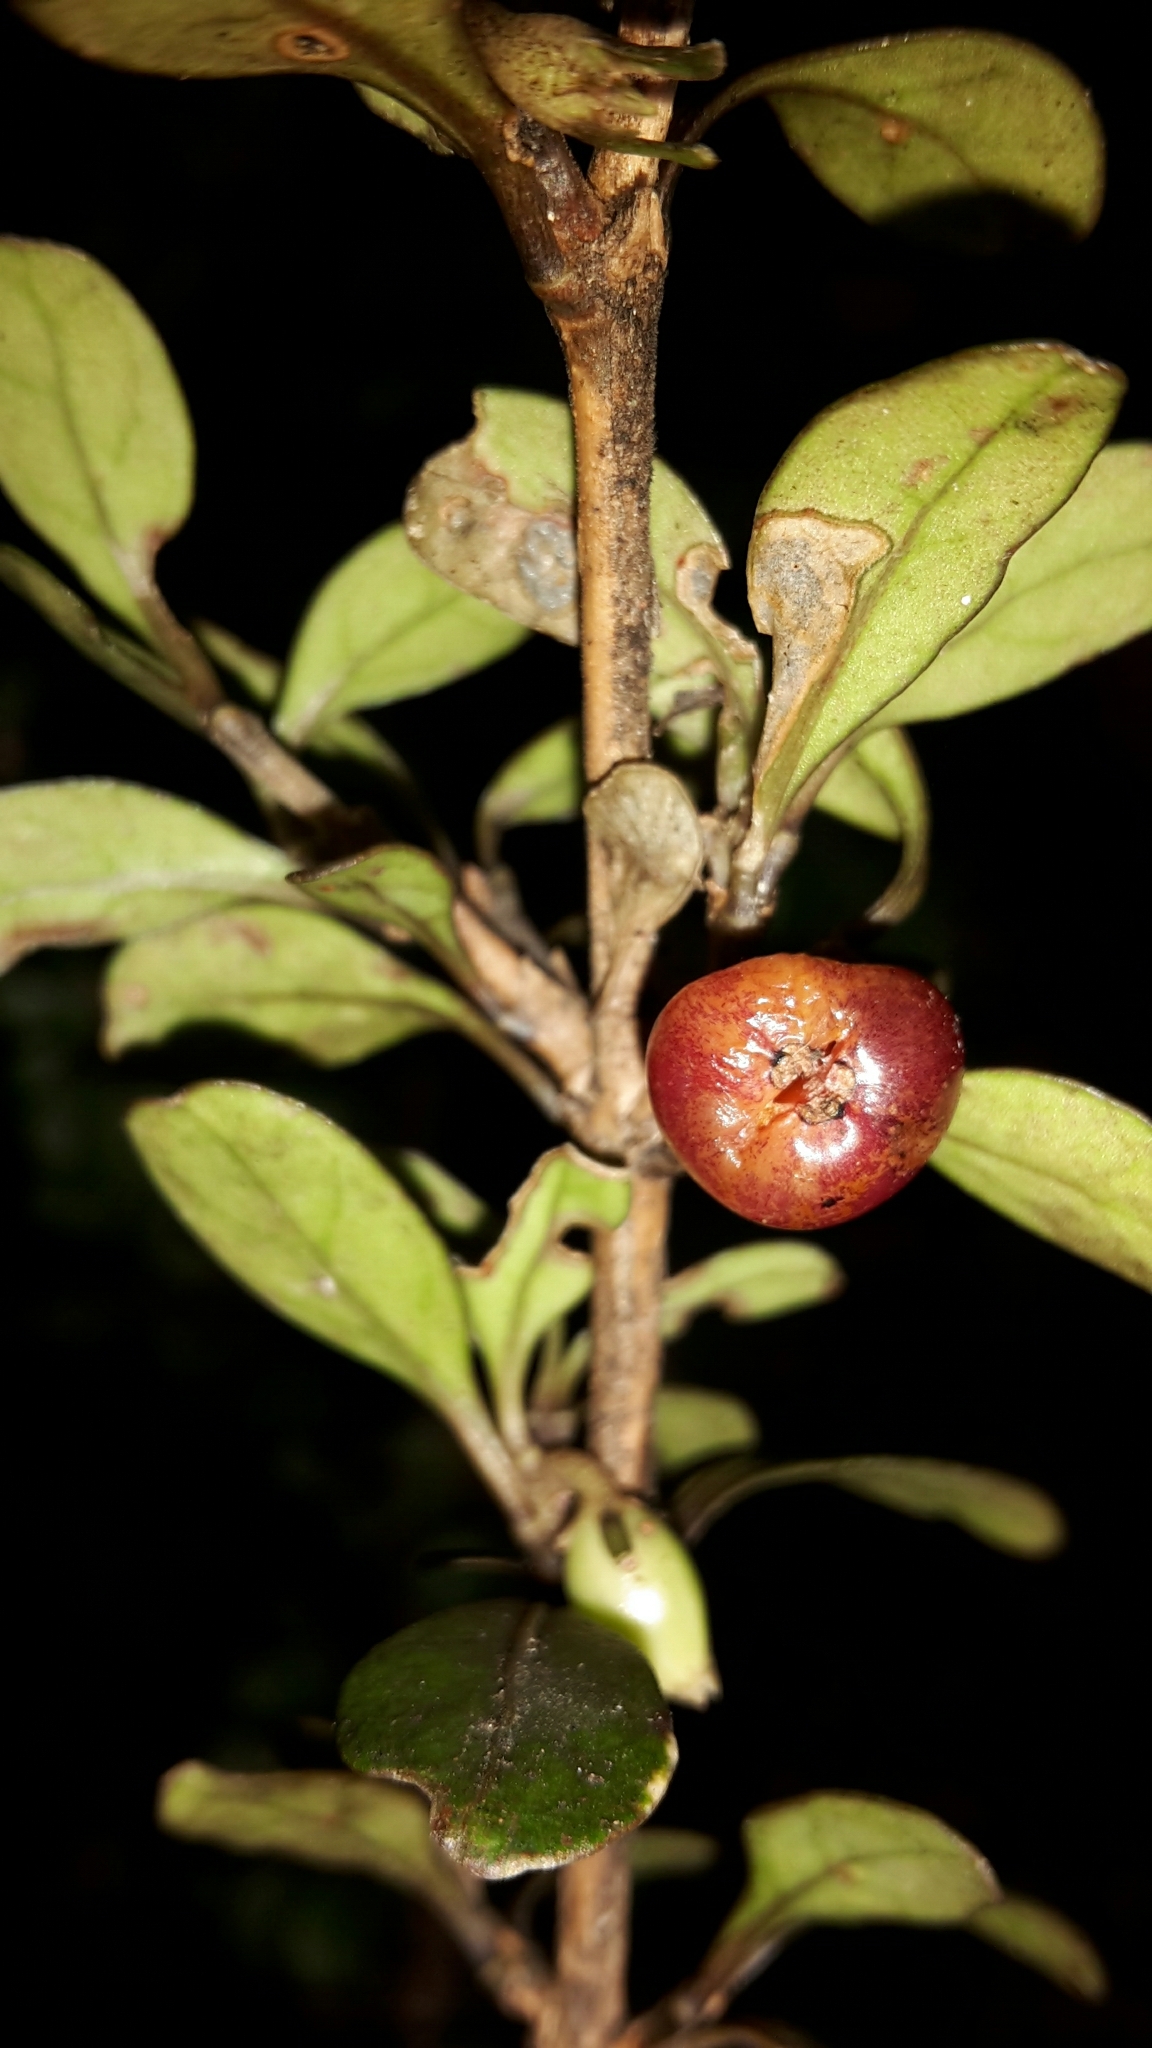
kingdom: Plantae
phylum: Tracheophyta
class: Magnoliopsida
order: Gentianales
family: Rubiaceae
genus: Coprosma
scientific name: Coprosma colensoi
